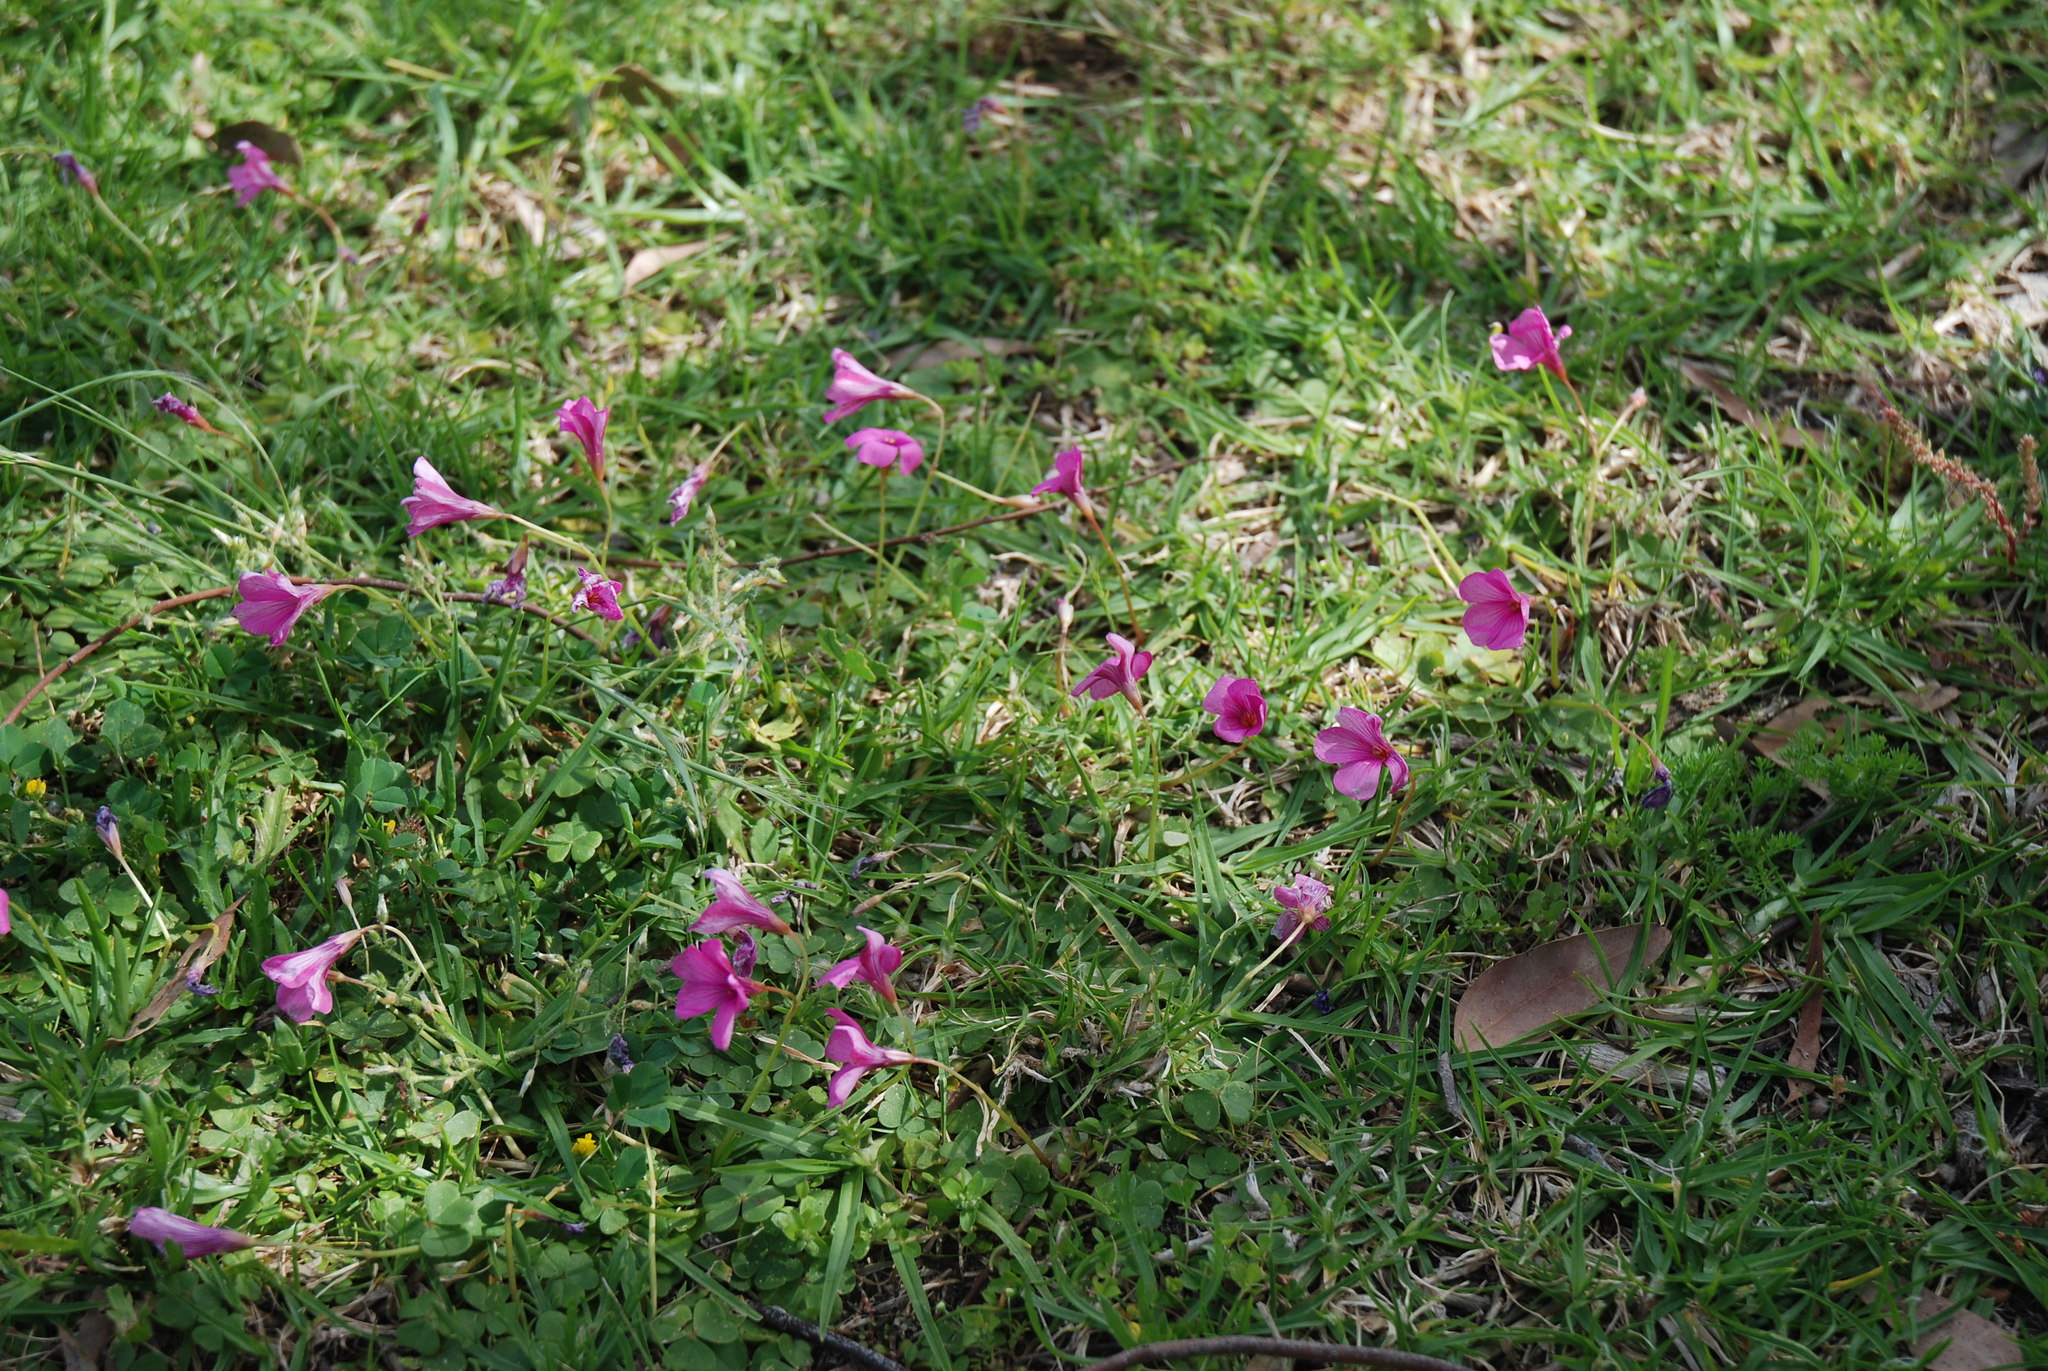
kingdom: Plantae
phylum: Tracheophyta
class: Magnoliopsida
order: Oxalidales
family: Oxalidaceae
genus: Oxalis
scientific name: Oxalis brasiliensis
